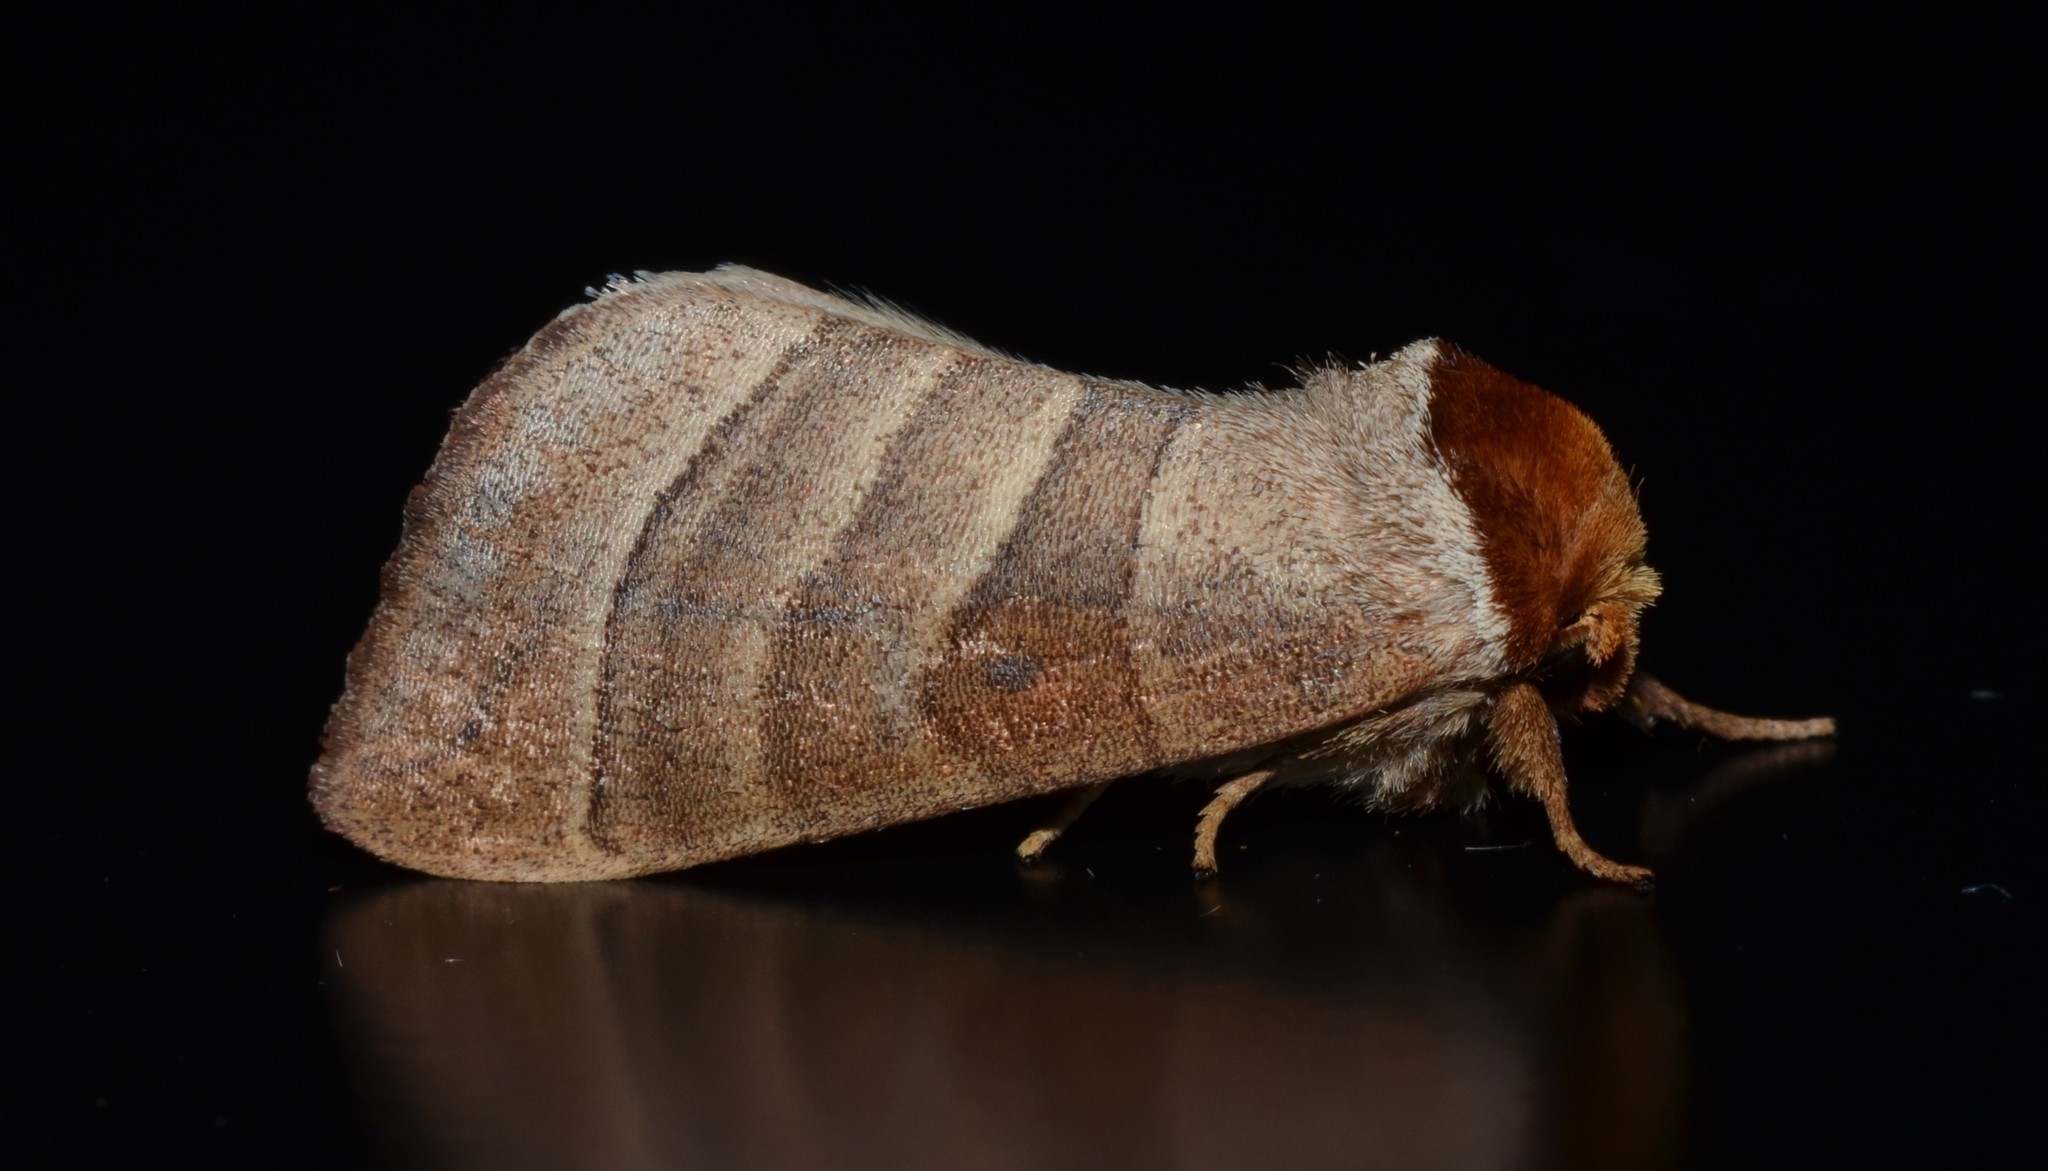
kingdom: Animalia
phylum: Arthropoda
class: Insecta
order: Lepidoptera
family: Notodontidae
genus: Datana
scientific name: Datana integerrima
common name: Walnut caterpillar
